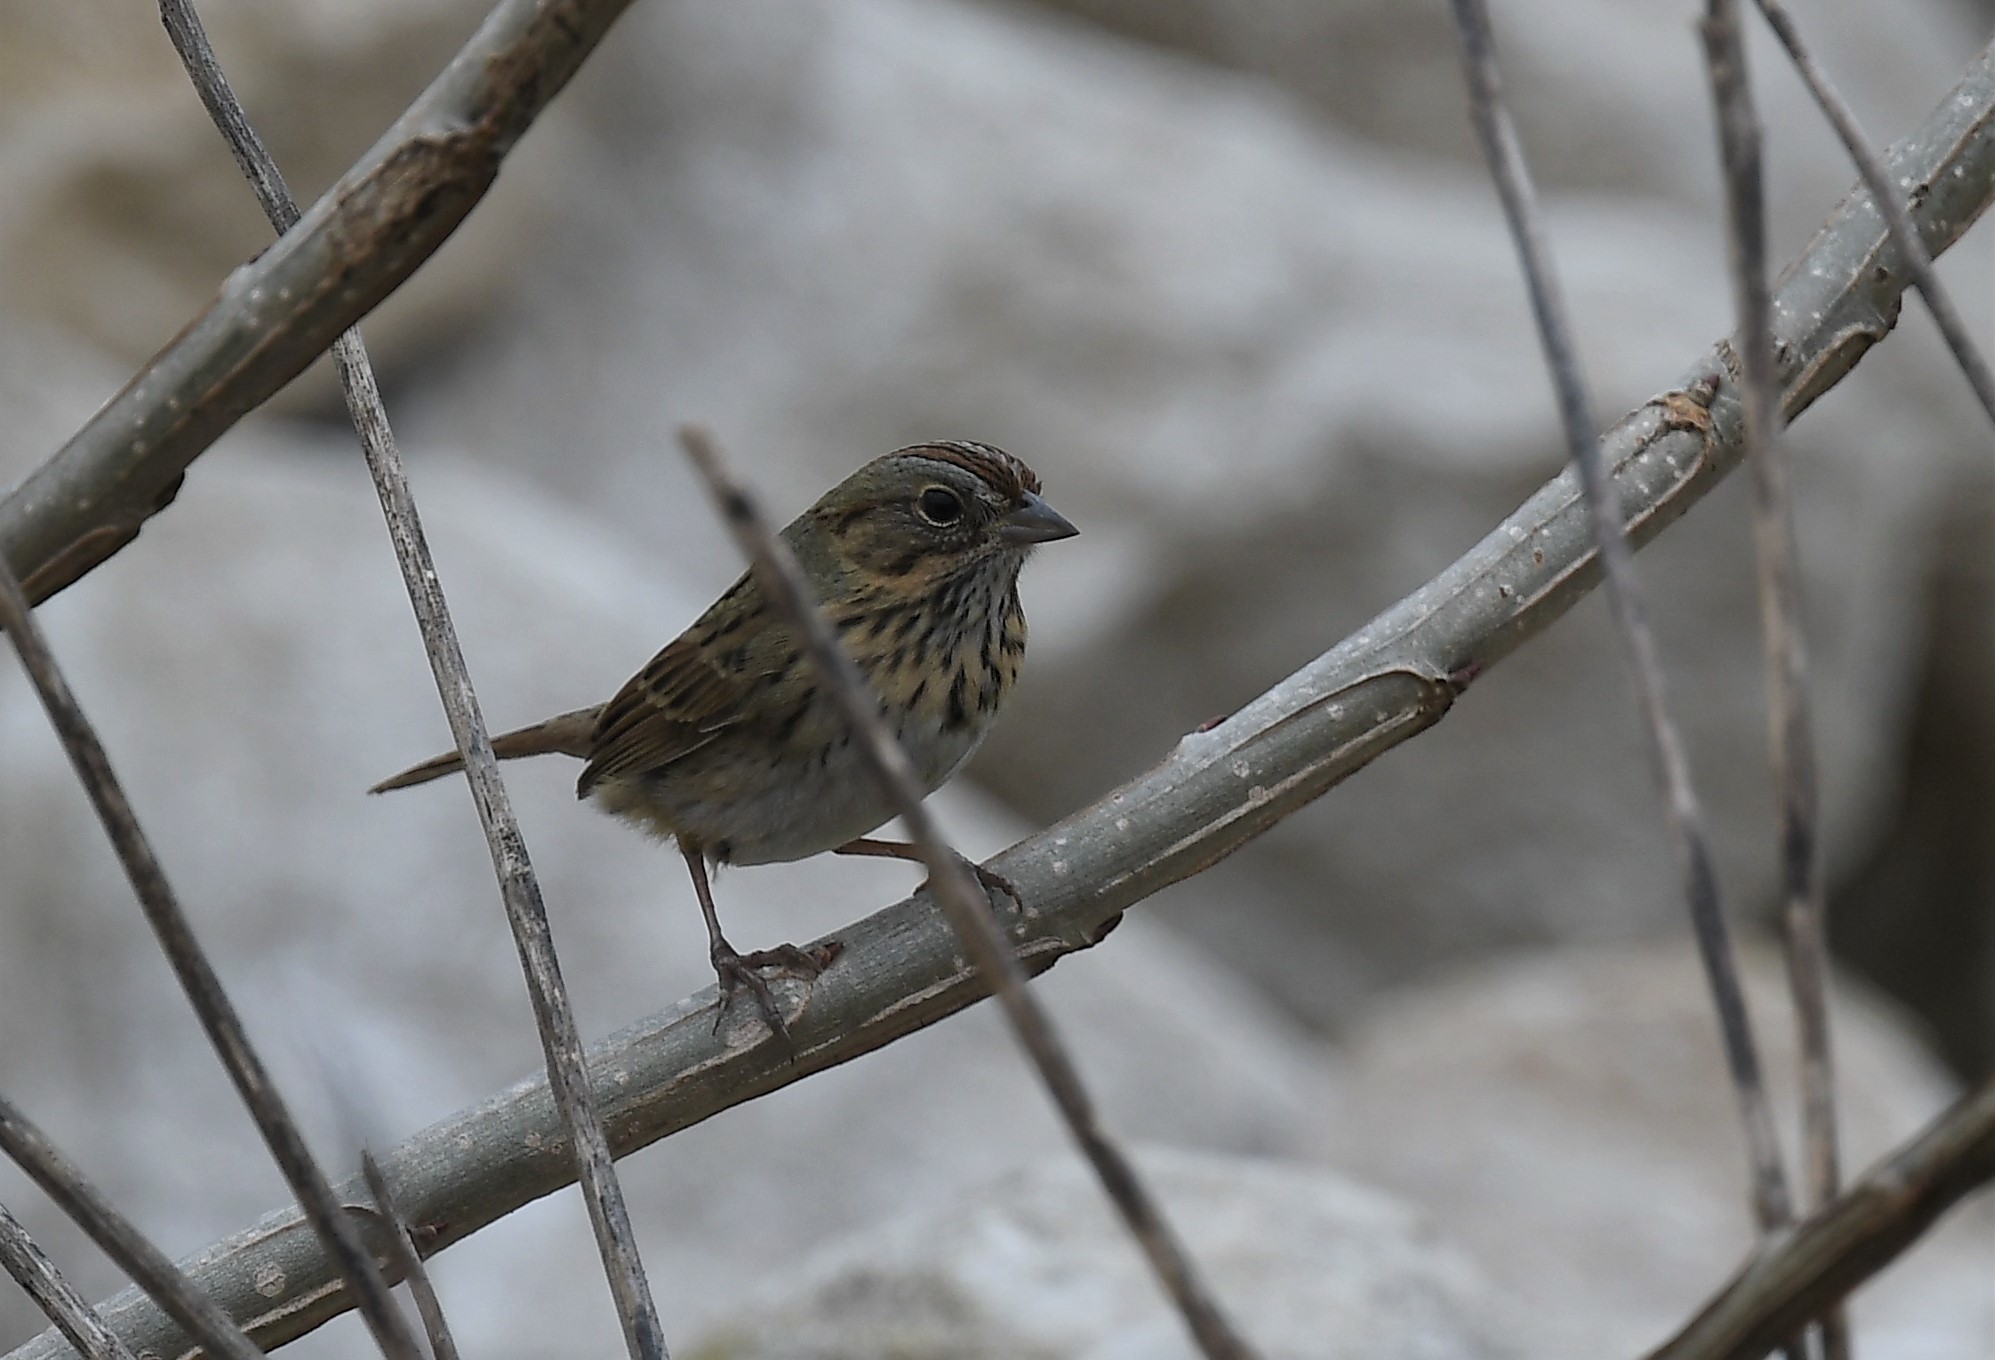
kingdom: Animalia
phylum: Chordata
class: Aves
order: Passeriformes
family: Passerellidae
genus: Melospiza
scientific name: Melospiza lincolnii
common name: Lincoln's sparrow
